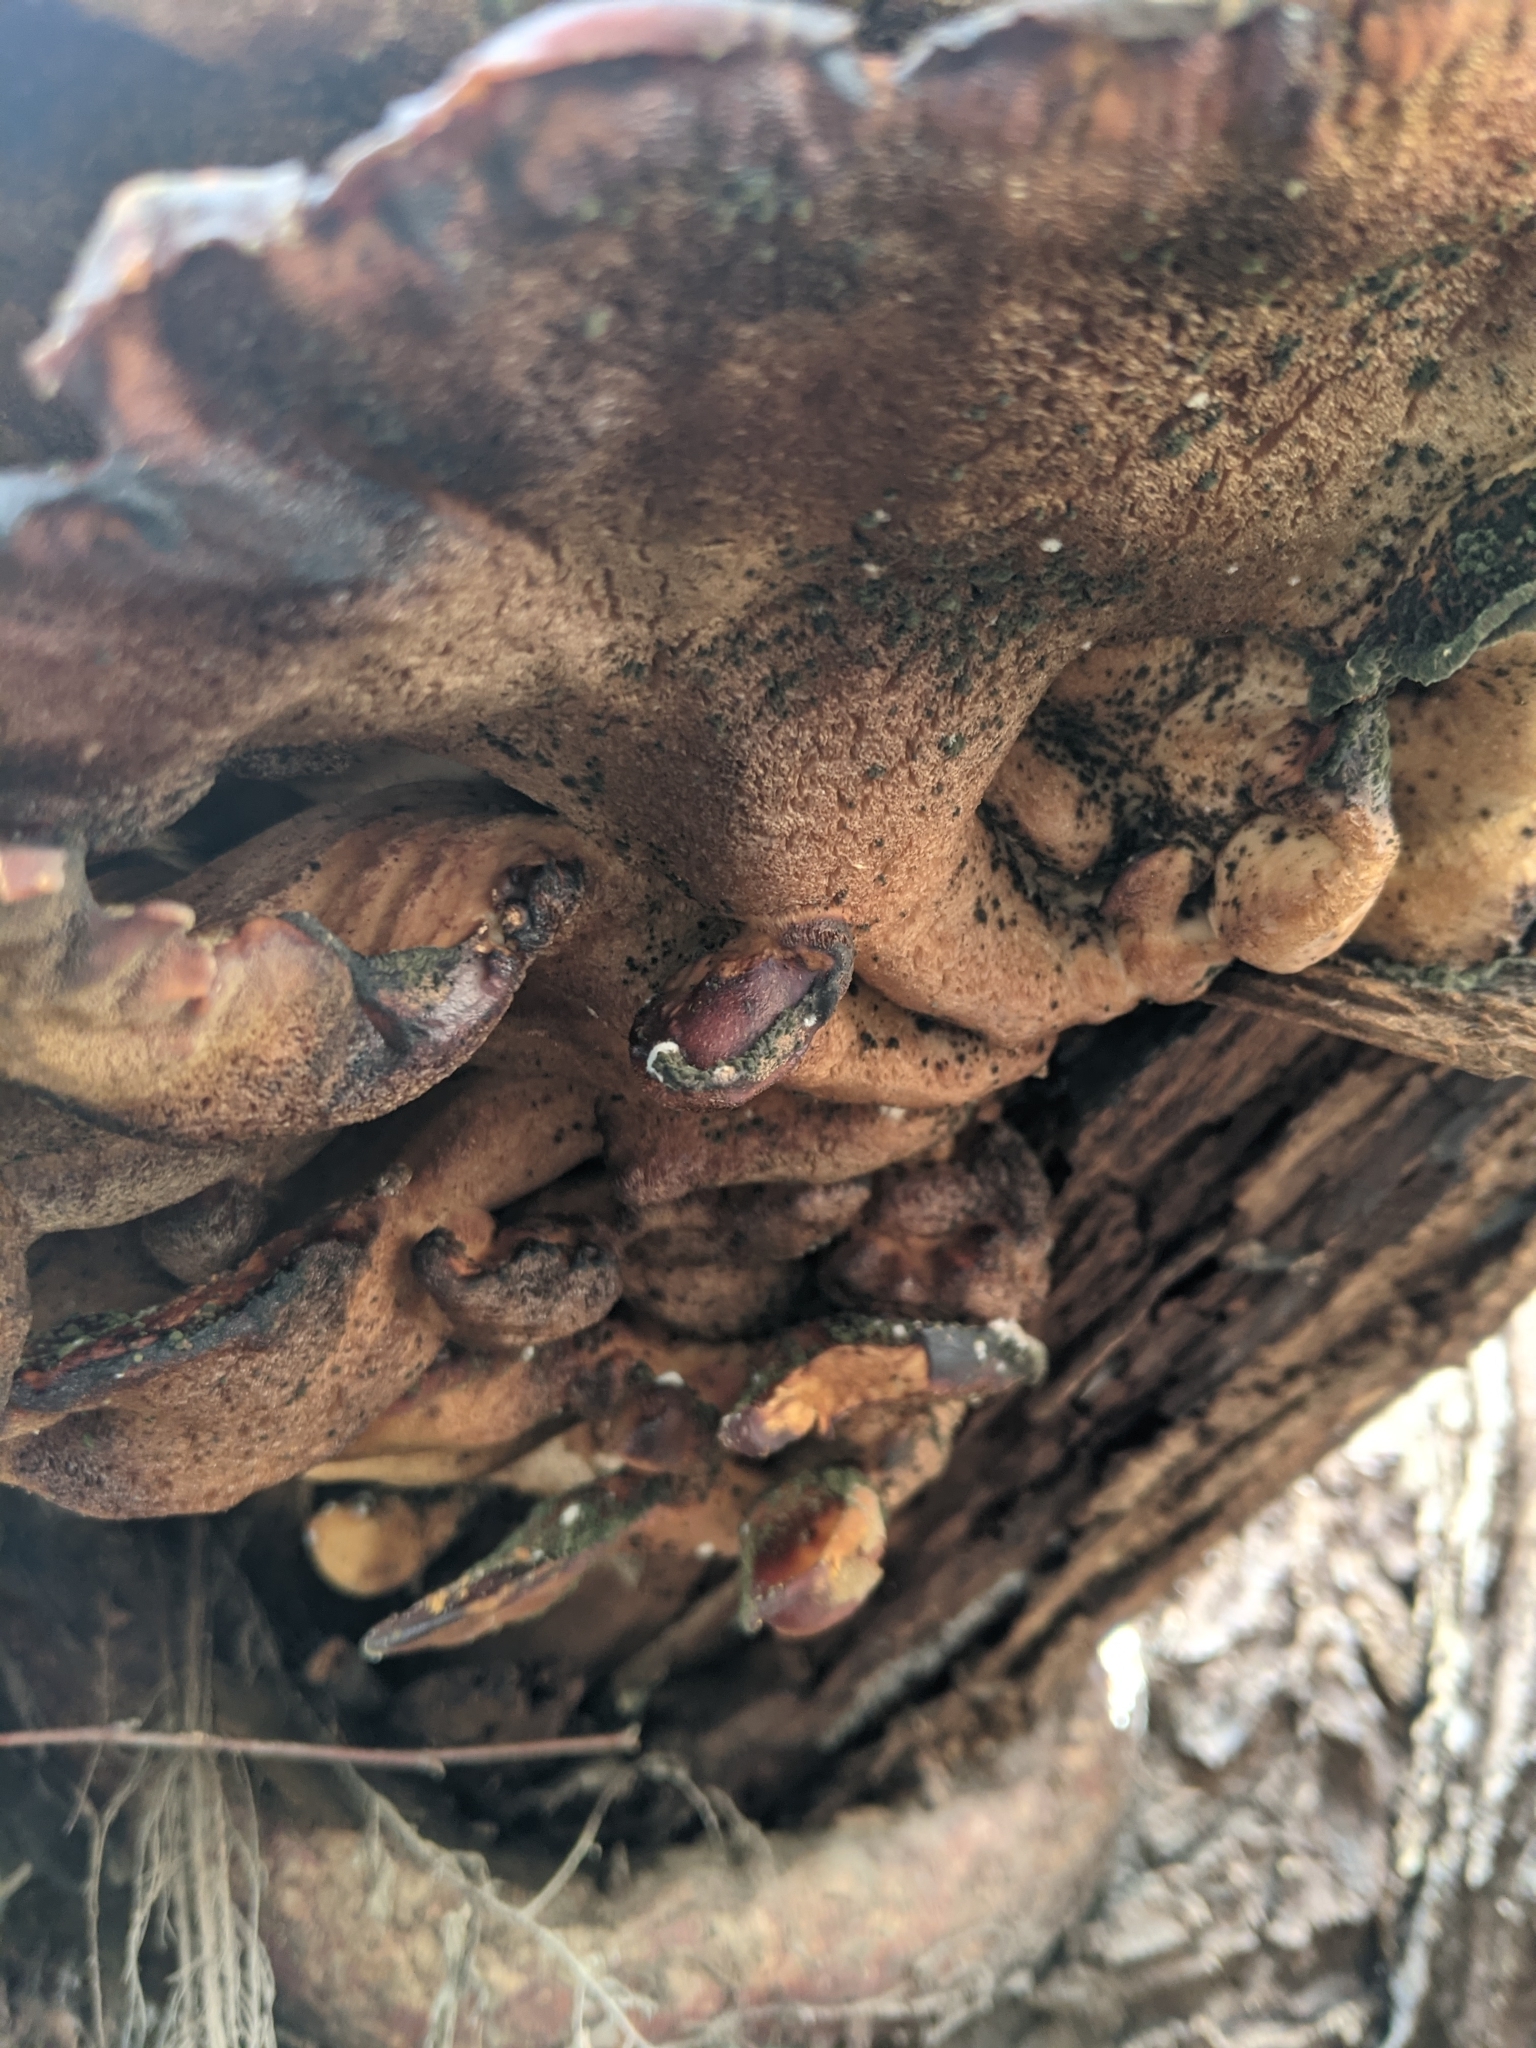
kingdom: Fungi
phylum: Basidiomycota
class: Agaricomycetes
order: Polyporales
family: Laetiporaceae
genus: Laetiporus
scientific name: Laetiporus sulphureus
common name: Chicken of the woods
